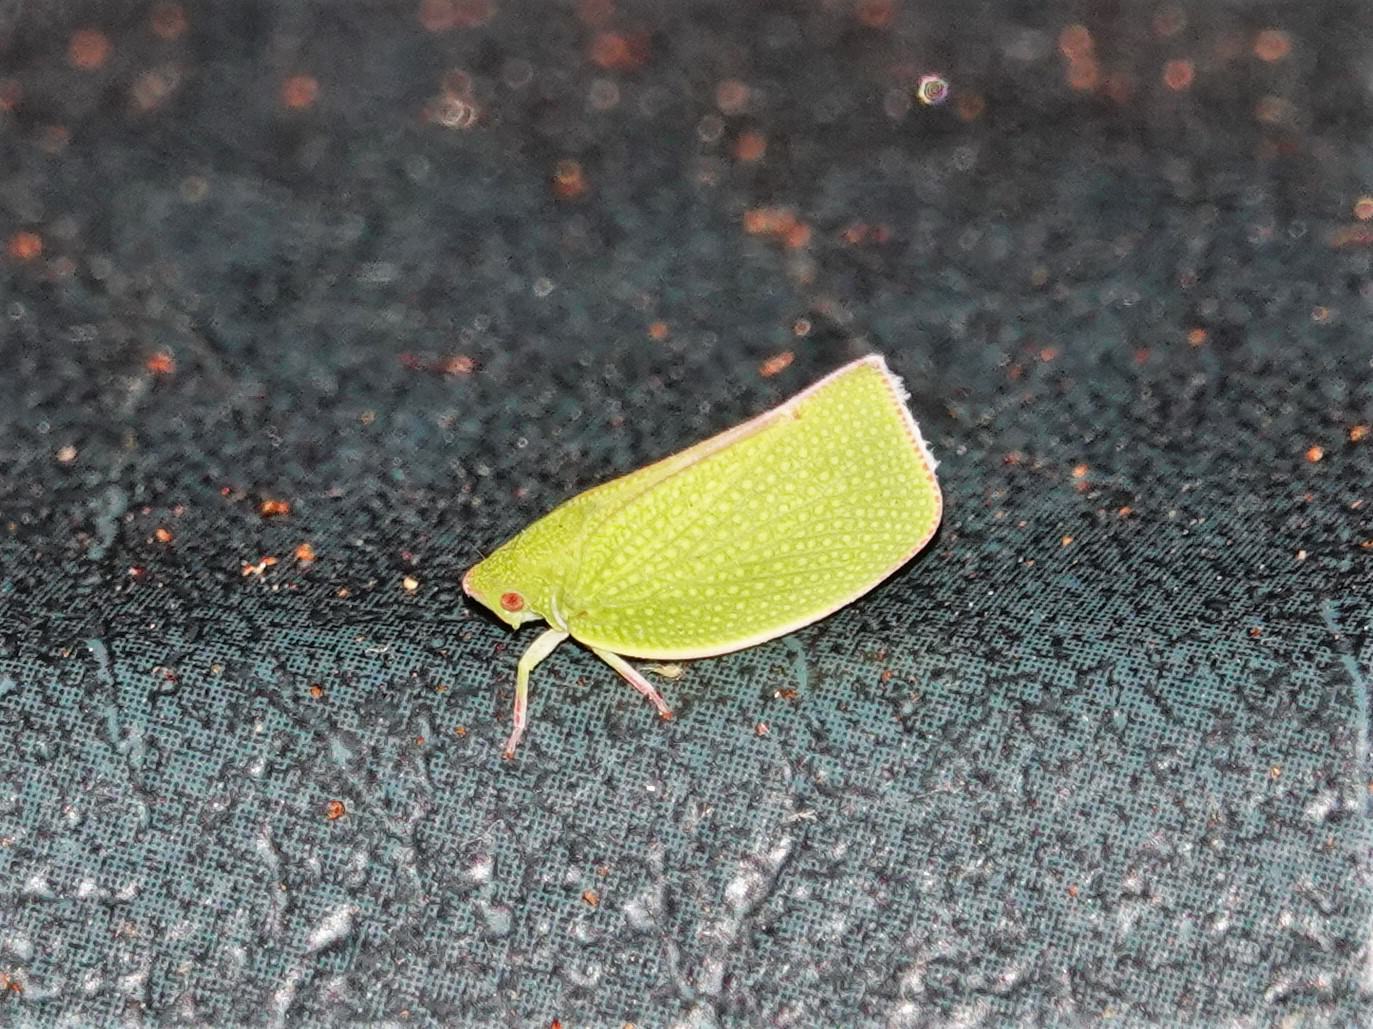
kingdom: Animalia
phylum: Arthropoda
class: Insecta
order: Hemiptera
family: Flatidae
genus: Siphanta
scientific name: Siphanta acuta
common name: Torpedo bug
